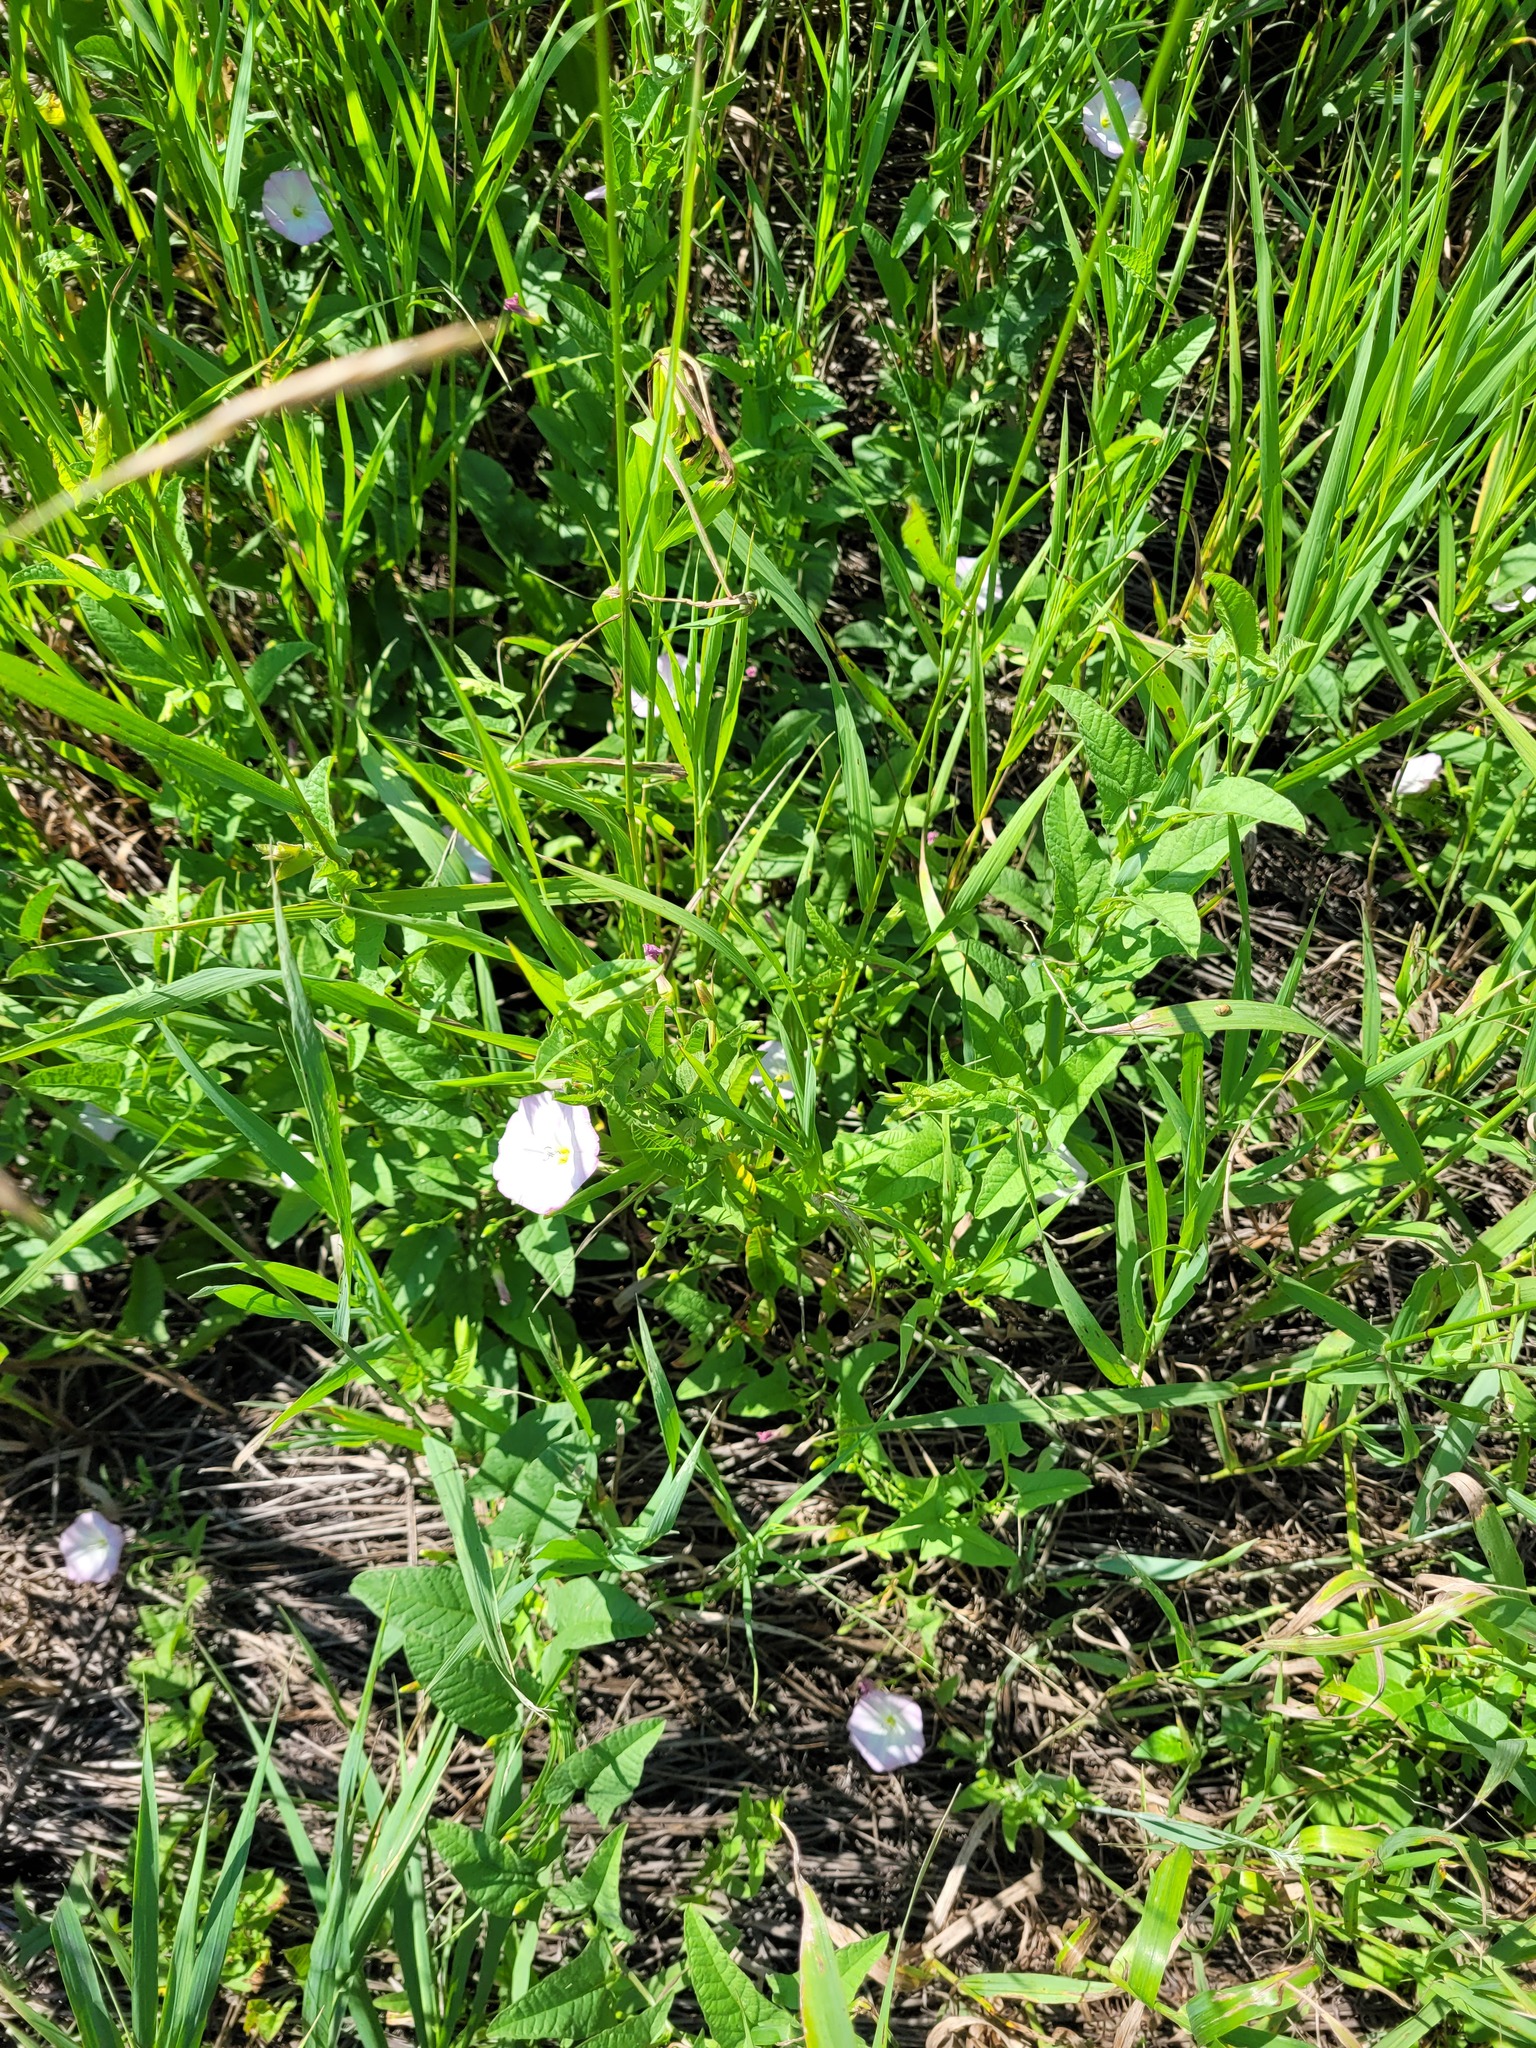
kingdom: Plantae
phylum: Tracheophyta
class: Magnoliopsida
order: Solanales
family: Convolvulaceae
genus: Convolvulus
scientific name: Convolvulus arvensis
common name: Field bindweed
